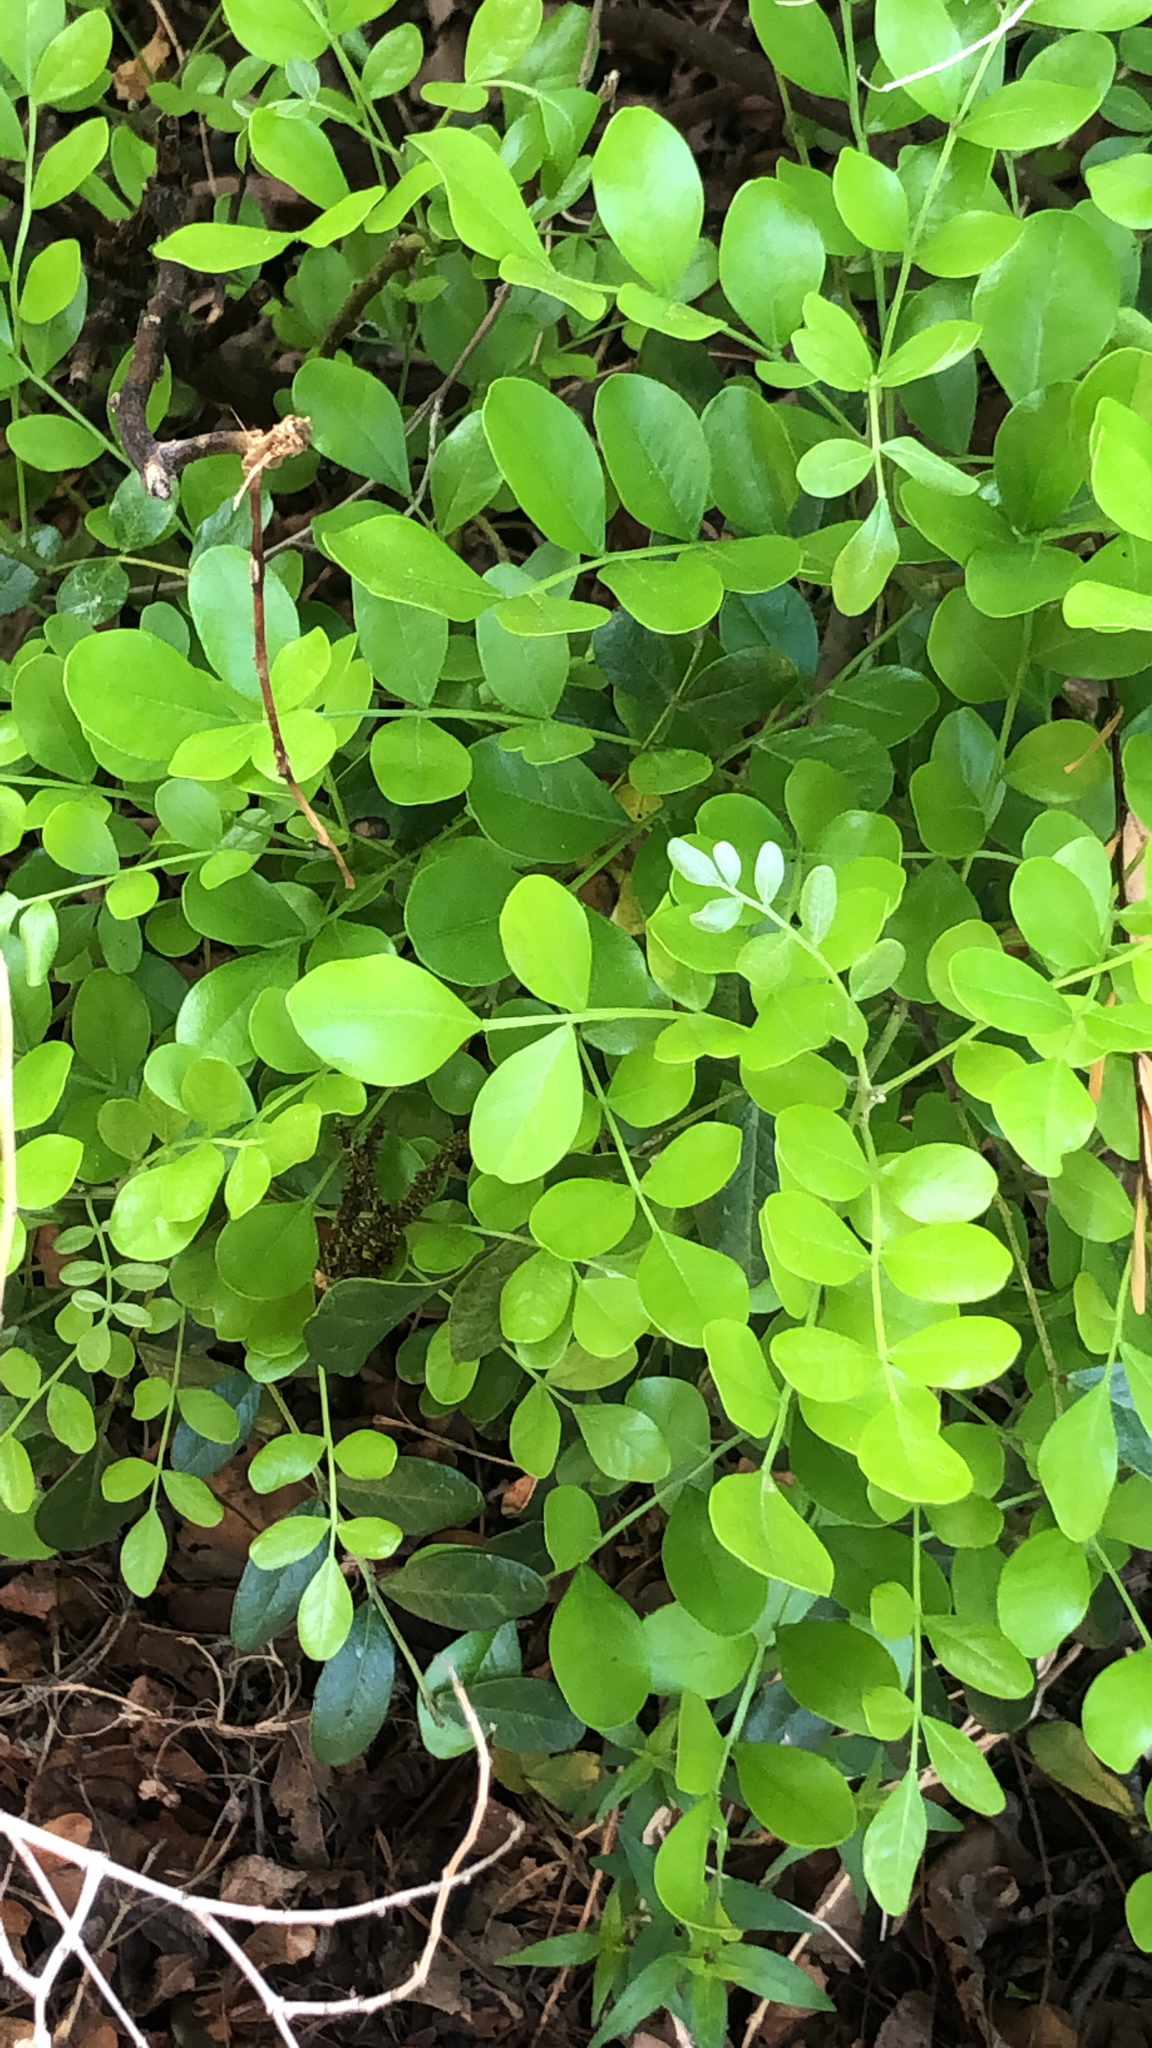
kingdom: Plantae
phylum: Tracheophyta
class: Magnoliopsida
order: Fabales
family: Fabaceae
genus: Dermatophyllum
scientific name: Dermatophyllum secundiflorum
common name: Texas-mountain-laurel
